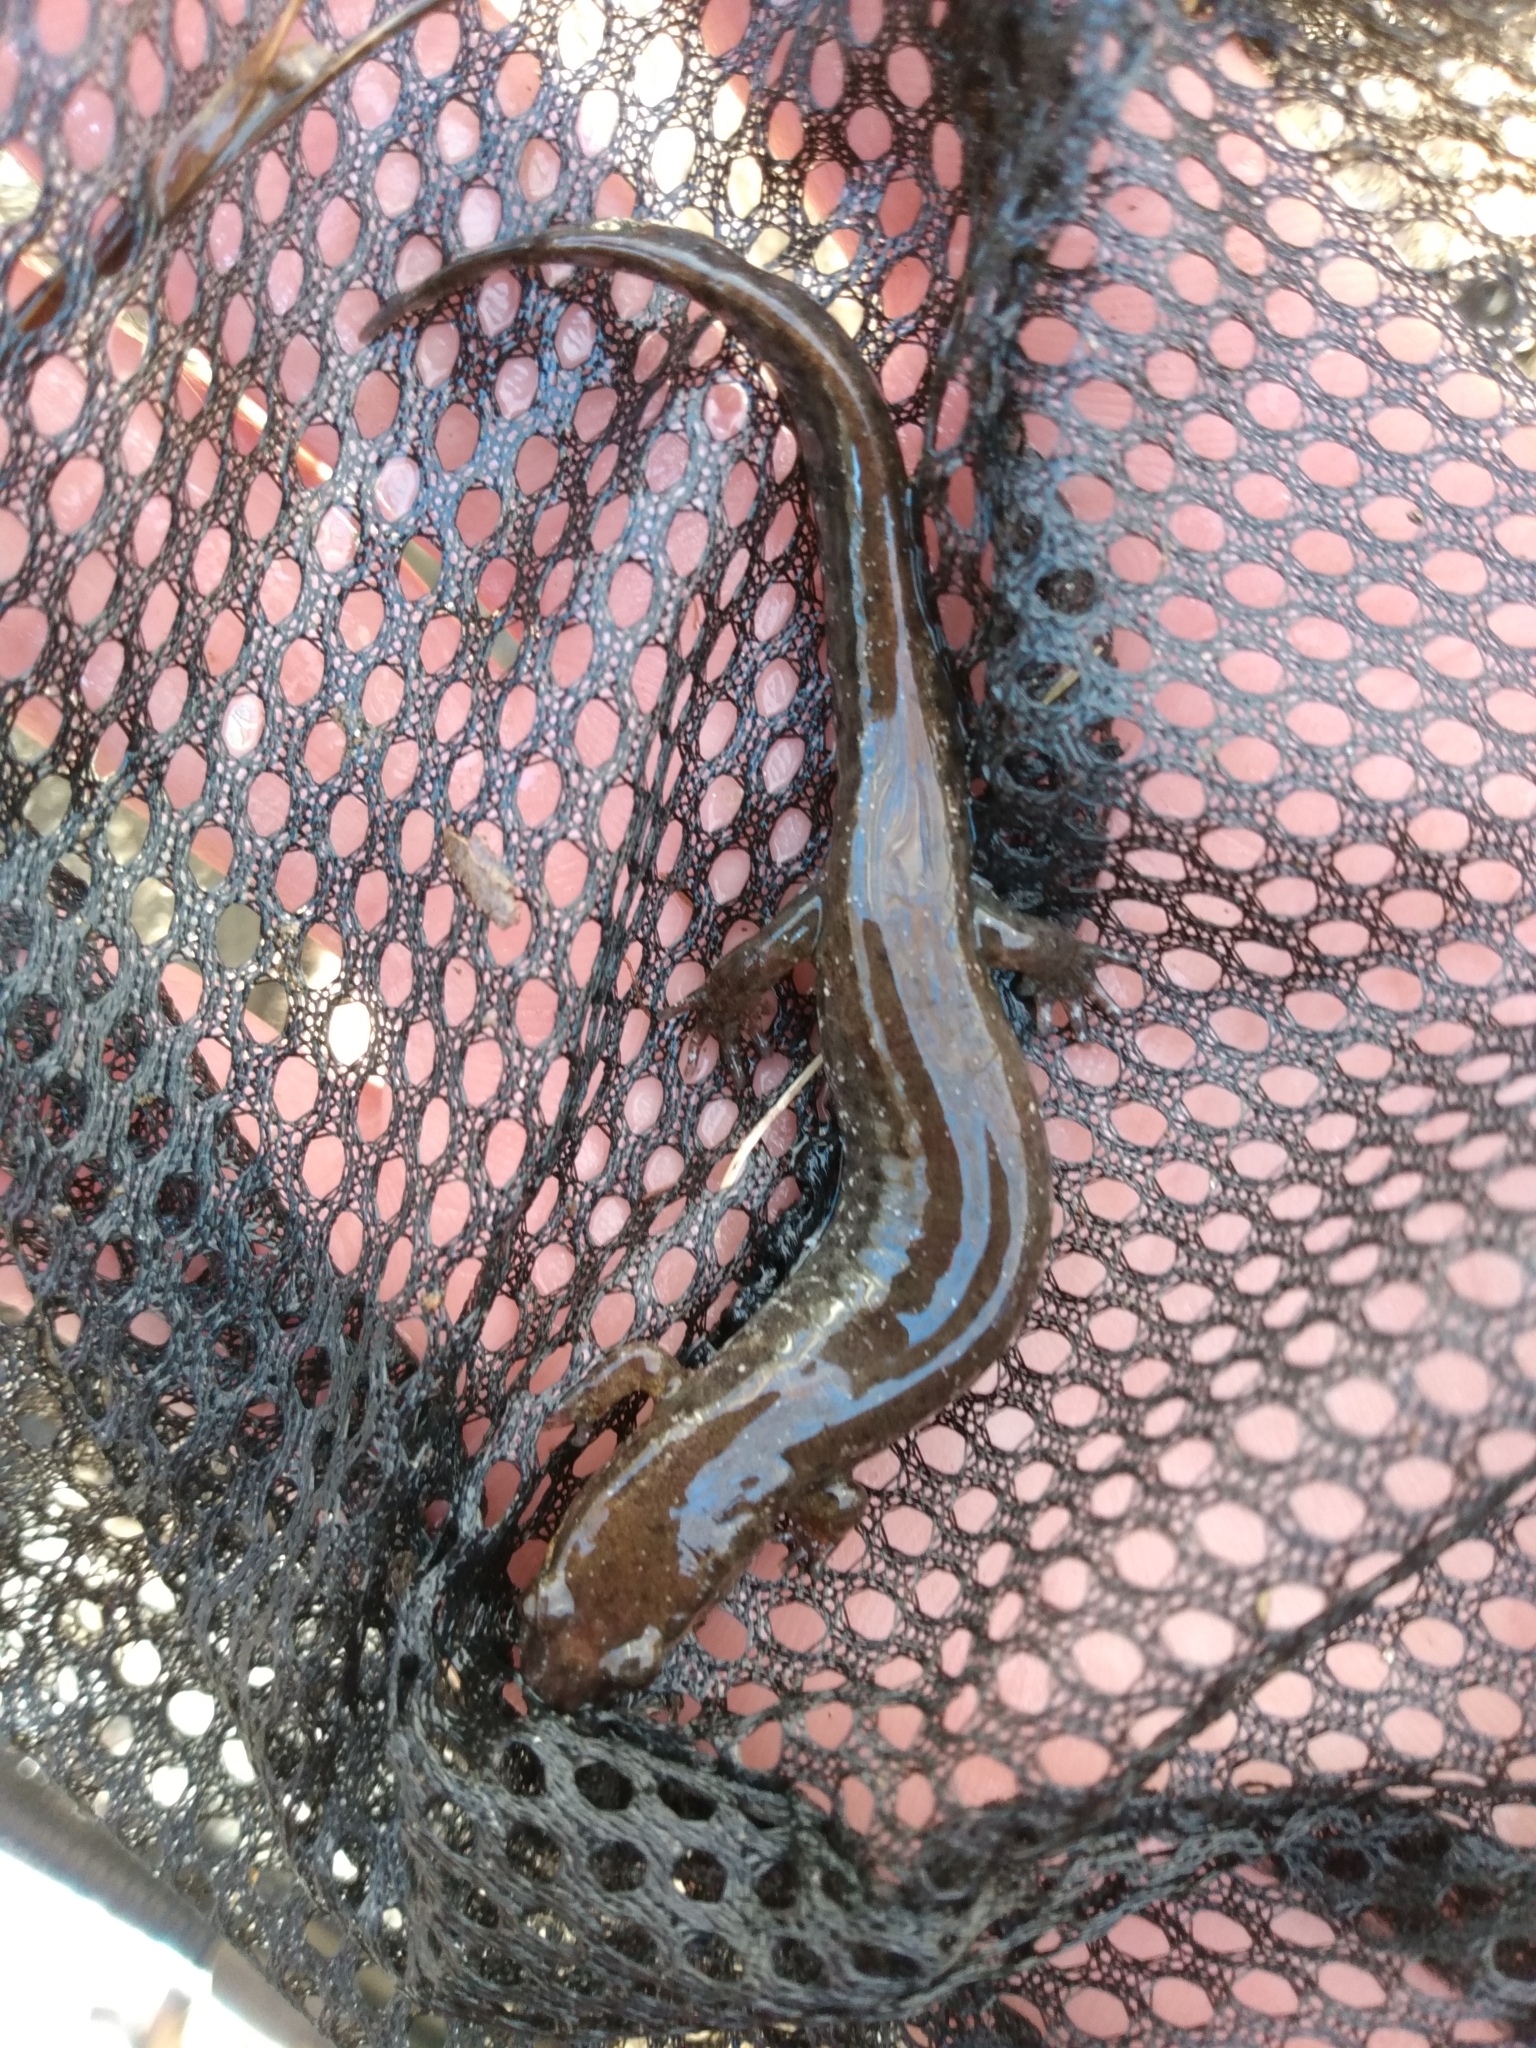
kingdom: Animalia
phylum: Chordata
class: Amphibia
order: Caudata
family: Plethodontidae
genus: Desmognathus
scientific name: Desmognathus conanti
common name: Spotted dusky salamander
